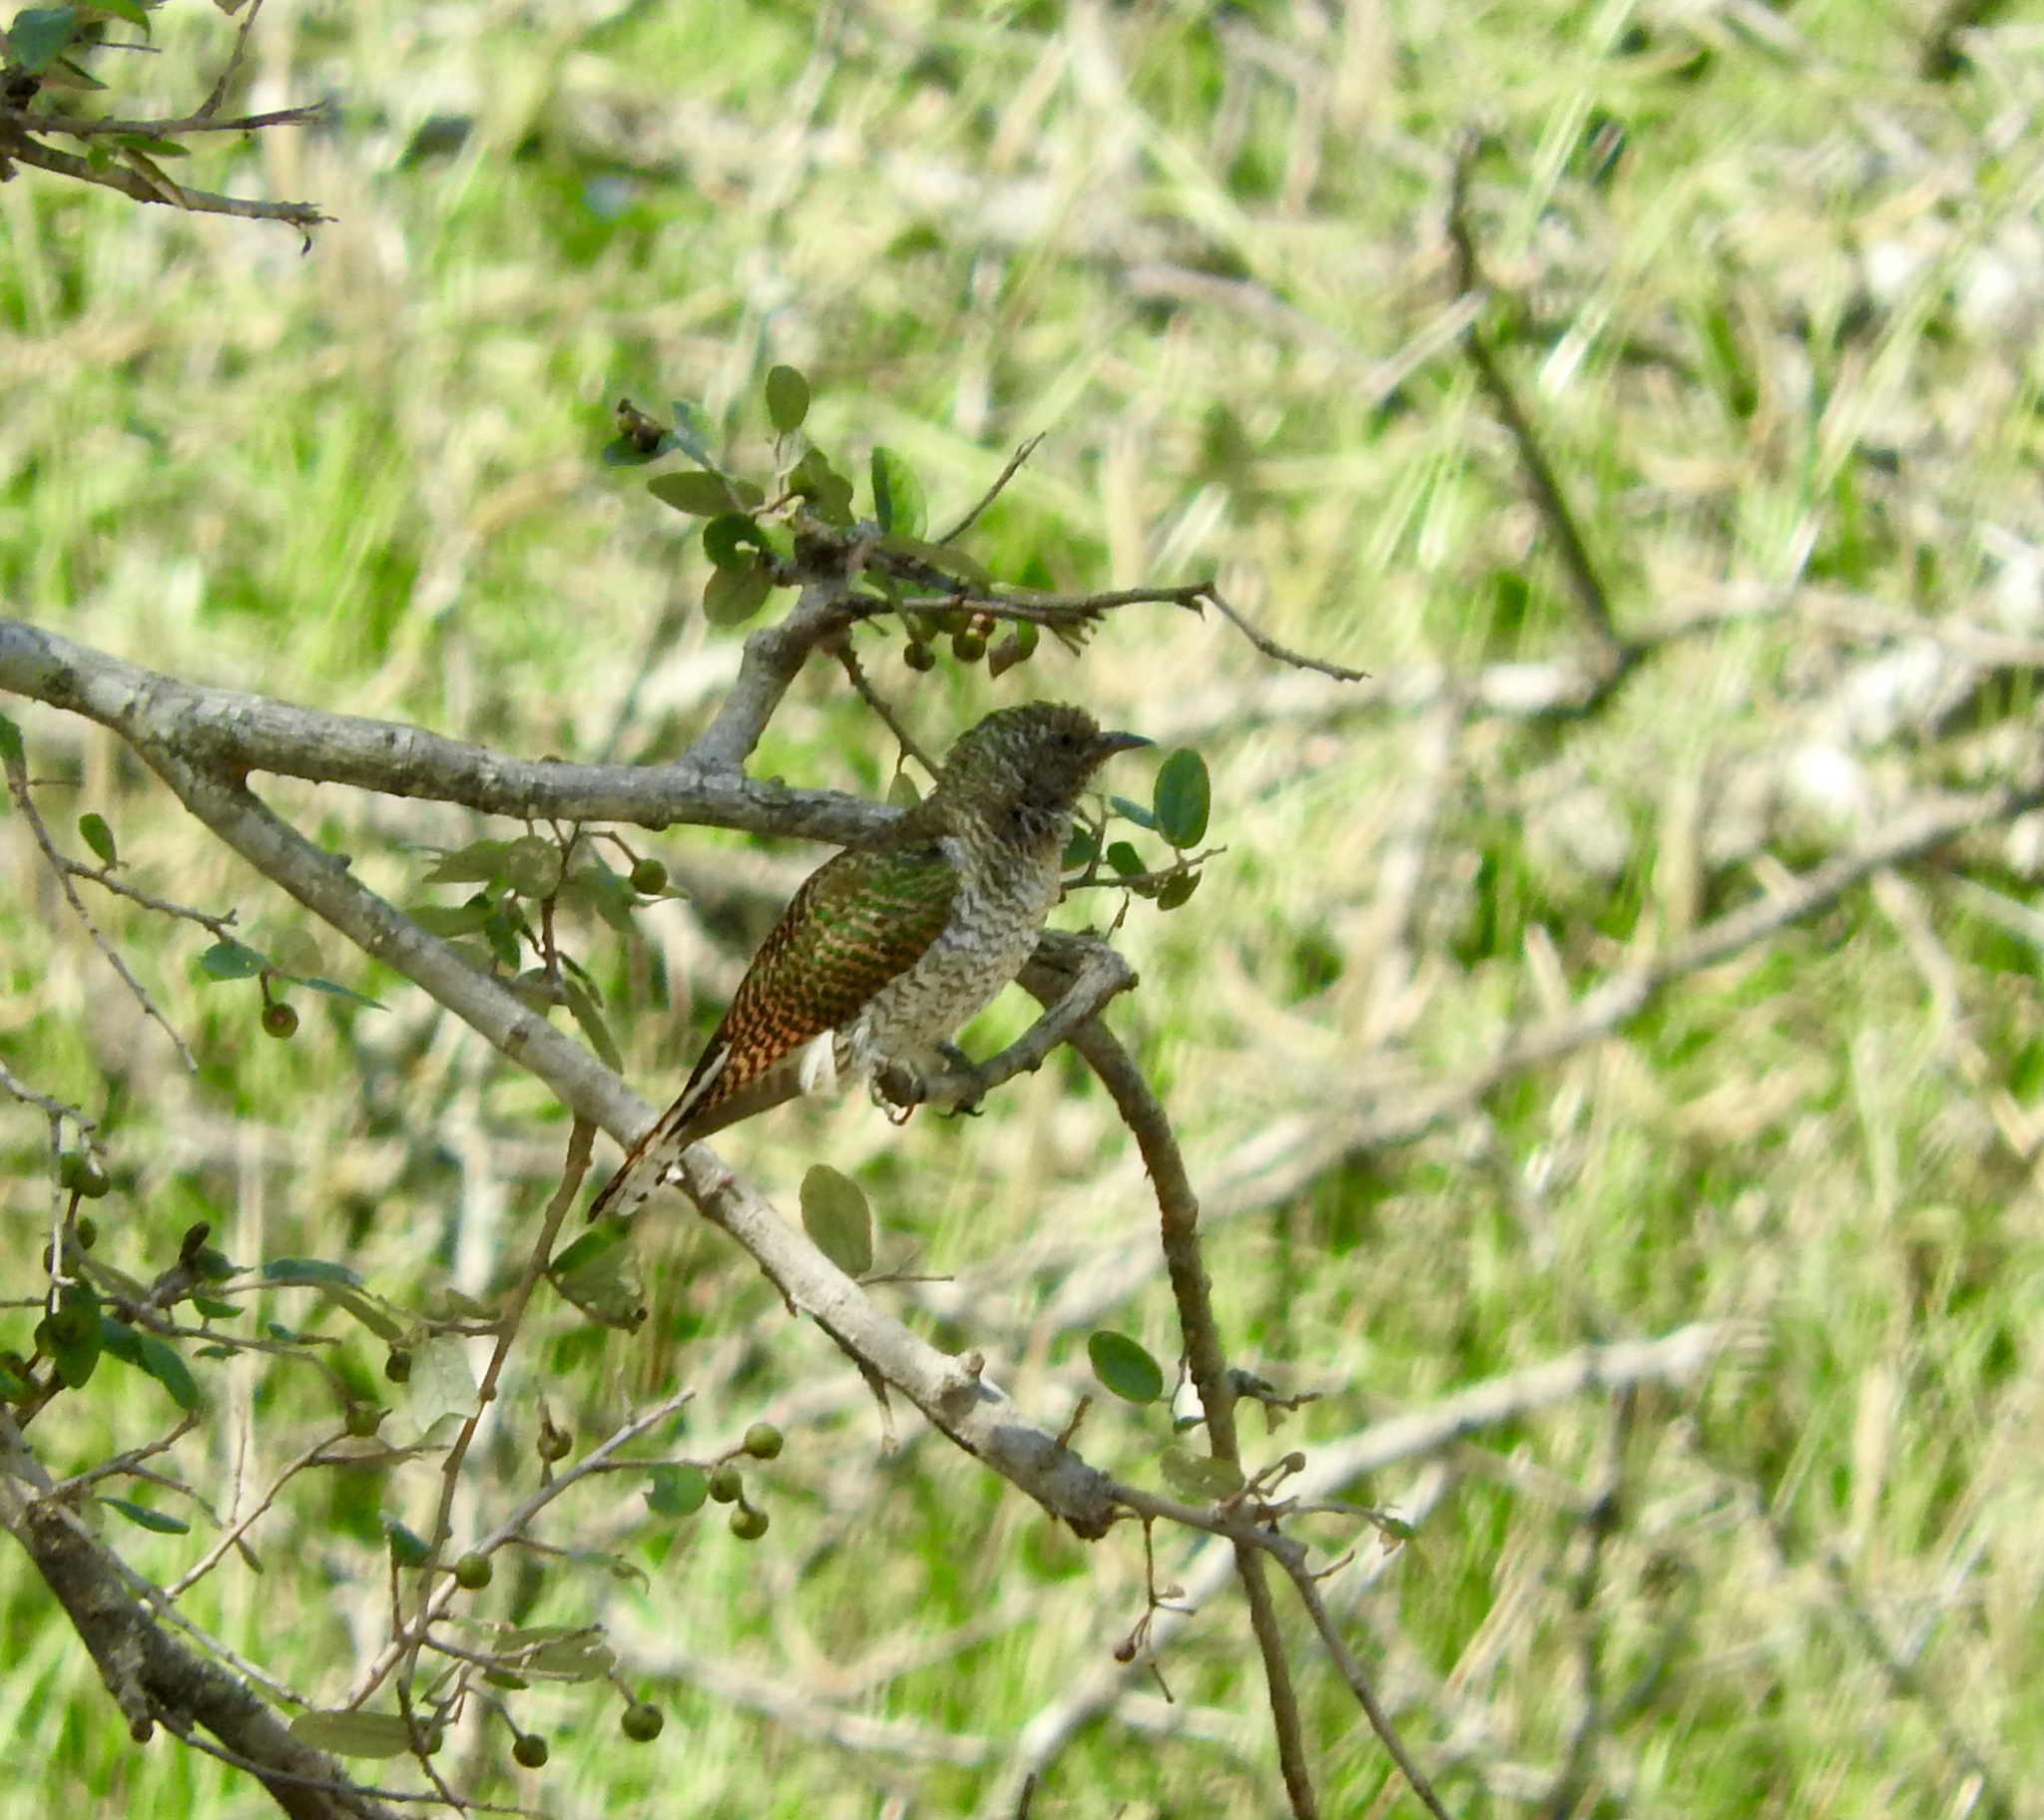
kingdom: Animalia
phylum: Chordata
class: Aves
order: Cuculiformes
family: Cuculidae
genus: Chrysococcyx
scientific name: Chrysococcyx cupreus
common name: African emerald cuckoo
